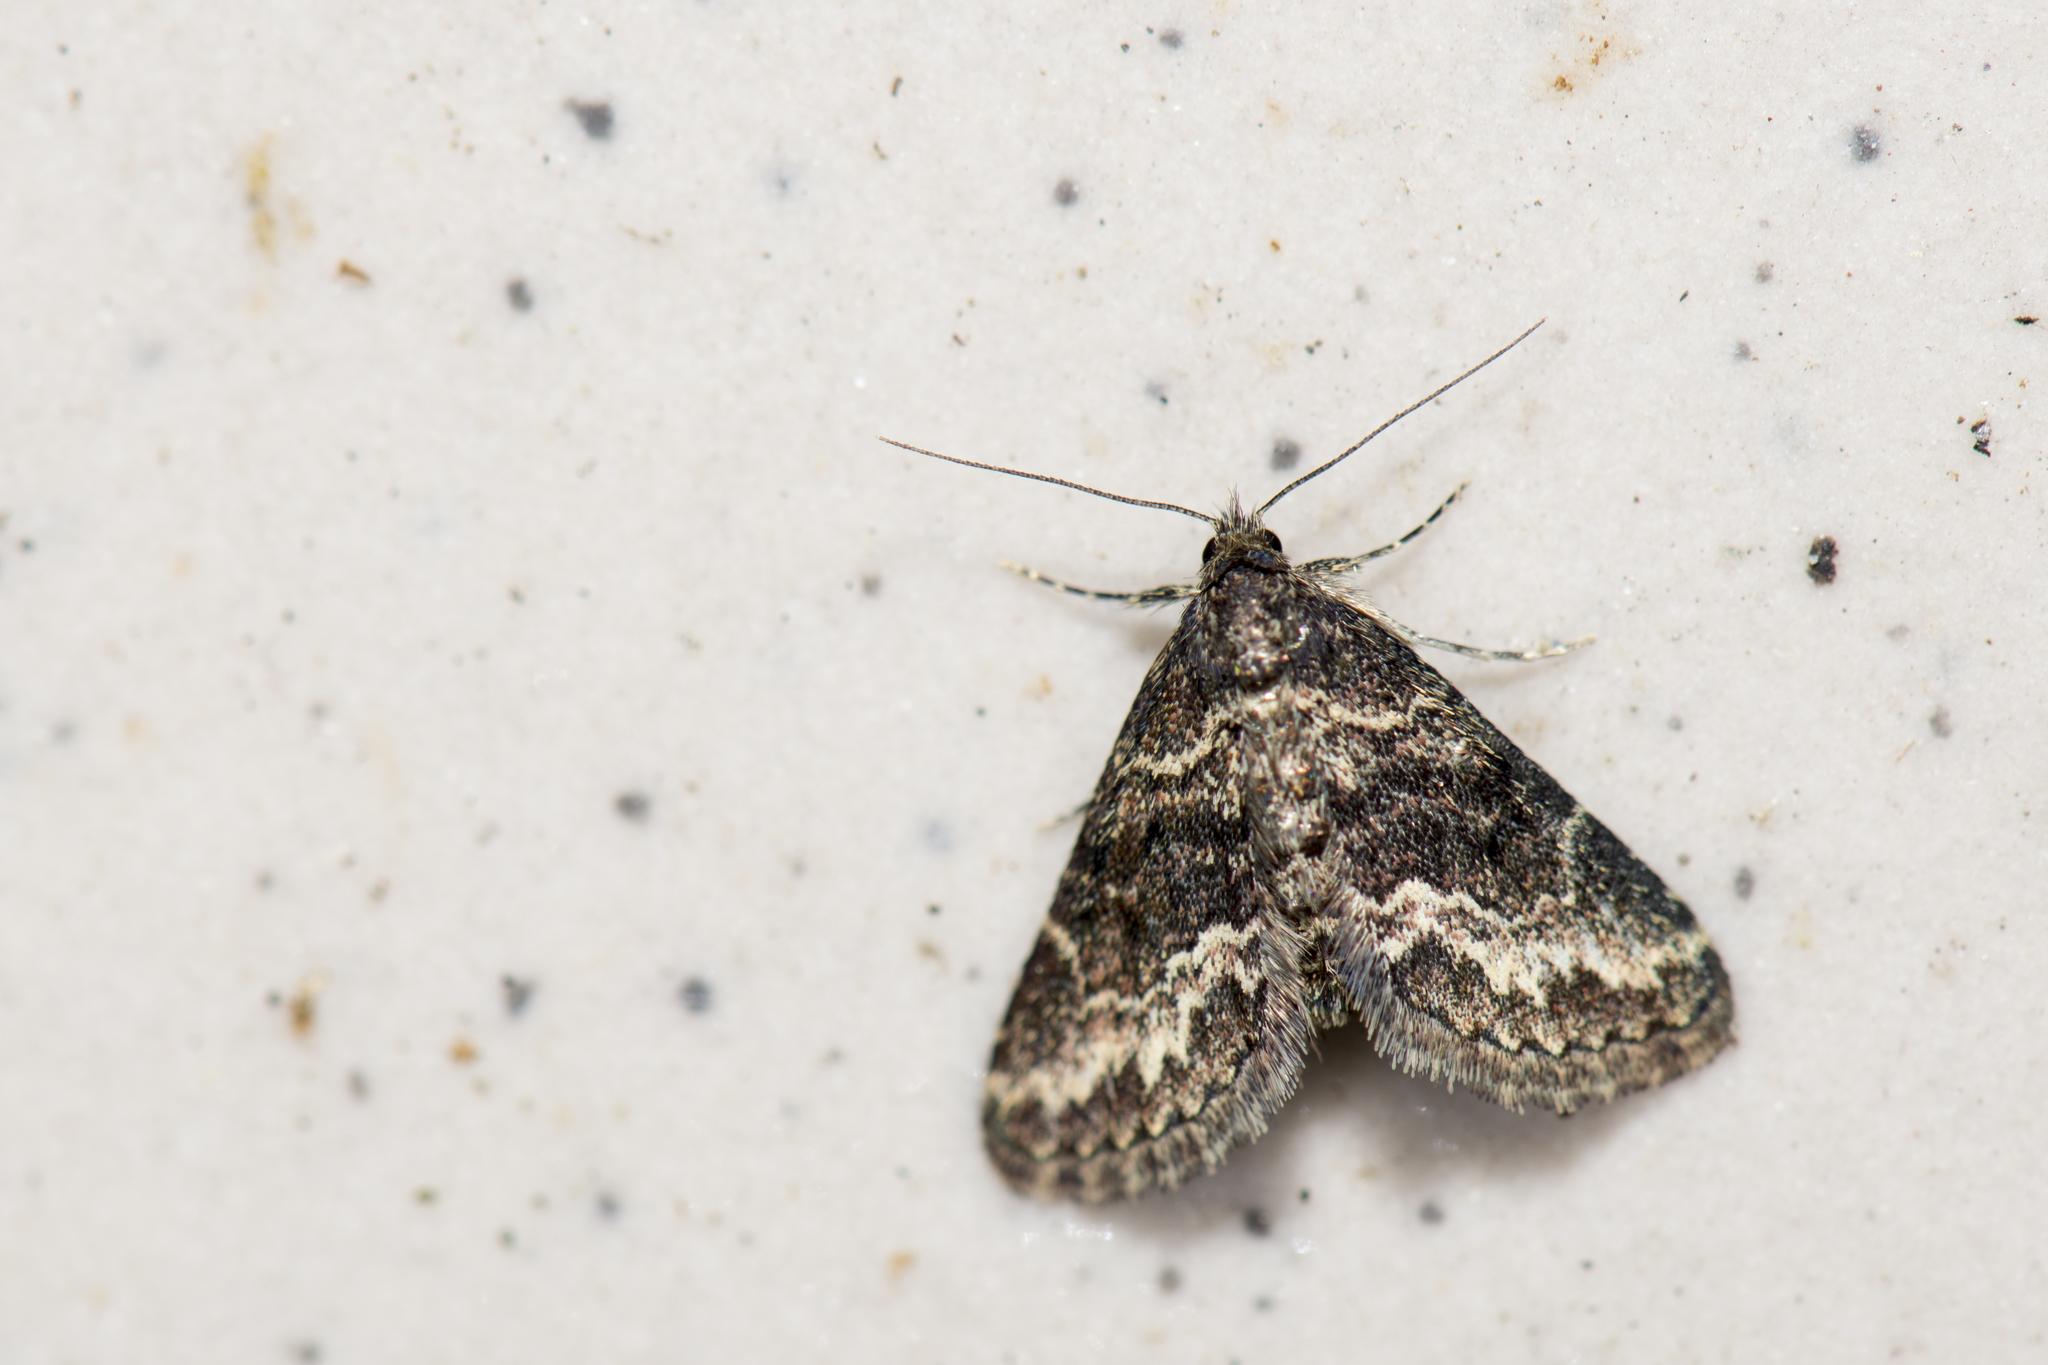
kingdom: Animalia
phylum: Arthropoda
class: Insecta
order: Lepidoptera
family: Erebidae
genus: Paragona
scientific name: Paragona inchoata
